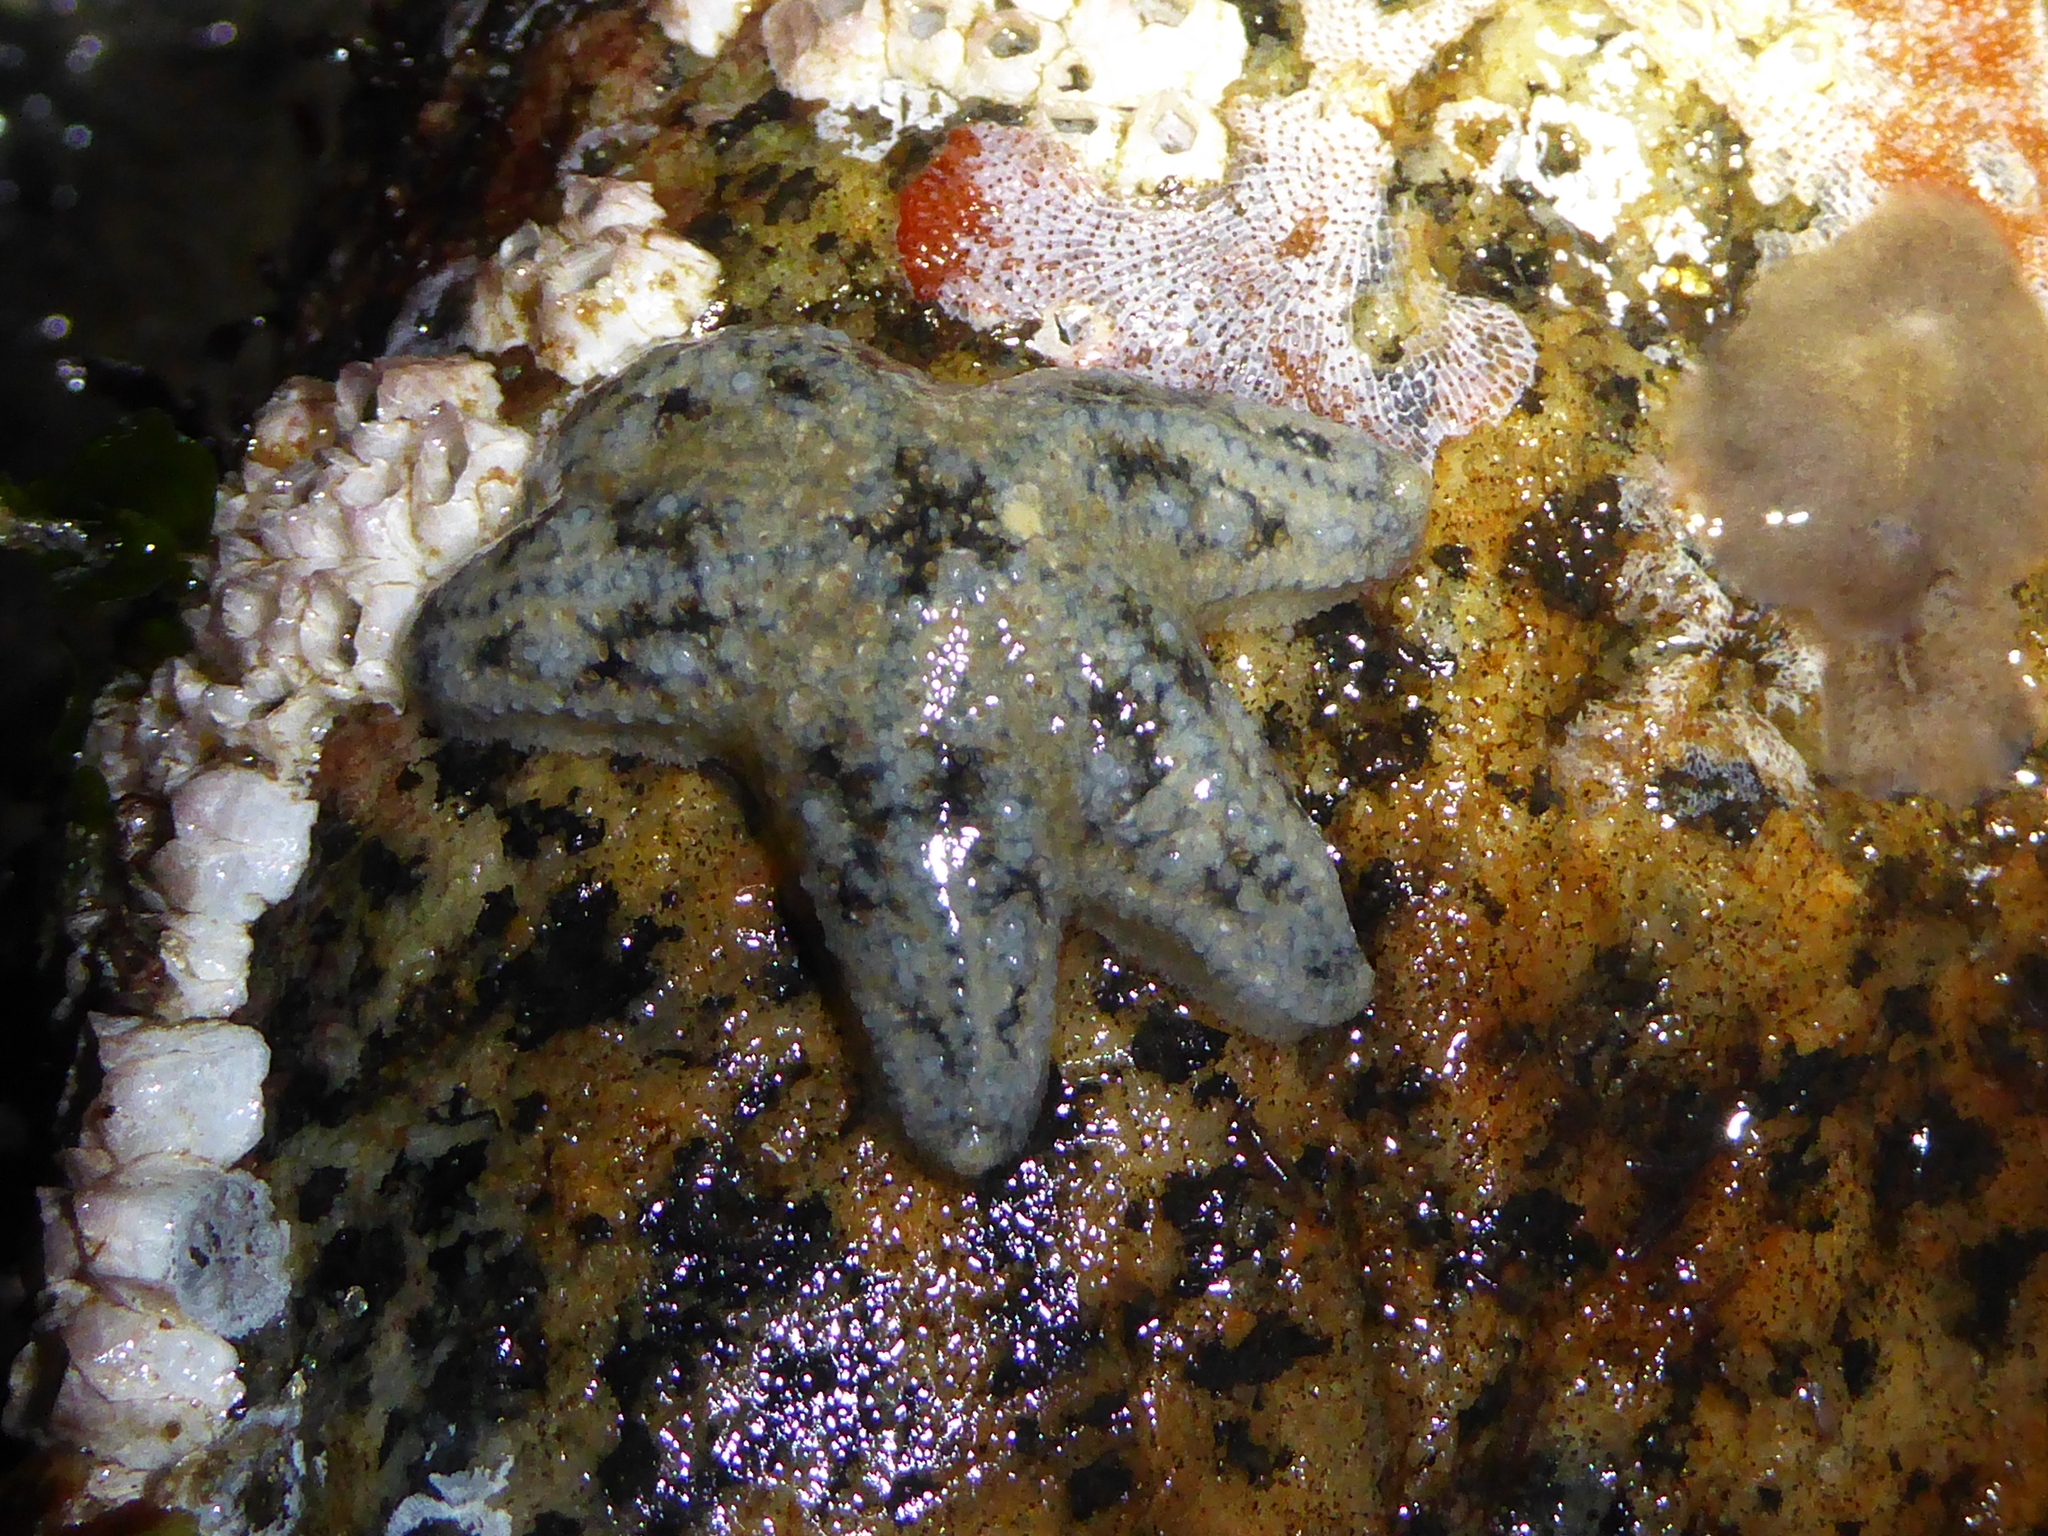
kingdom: Animalia
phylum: Echinodermata
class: Asteroidea
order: Forcipulatida
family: Asteriidae
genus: Pisaster
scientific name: Pisaster ochraceus
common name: Ochre stars
